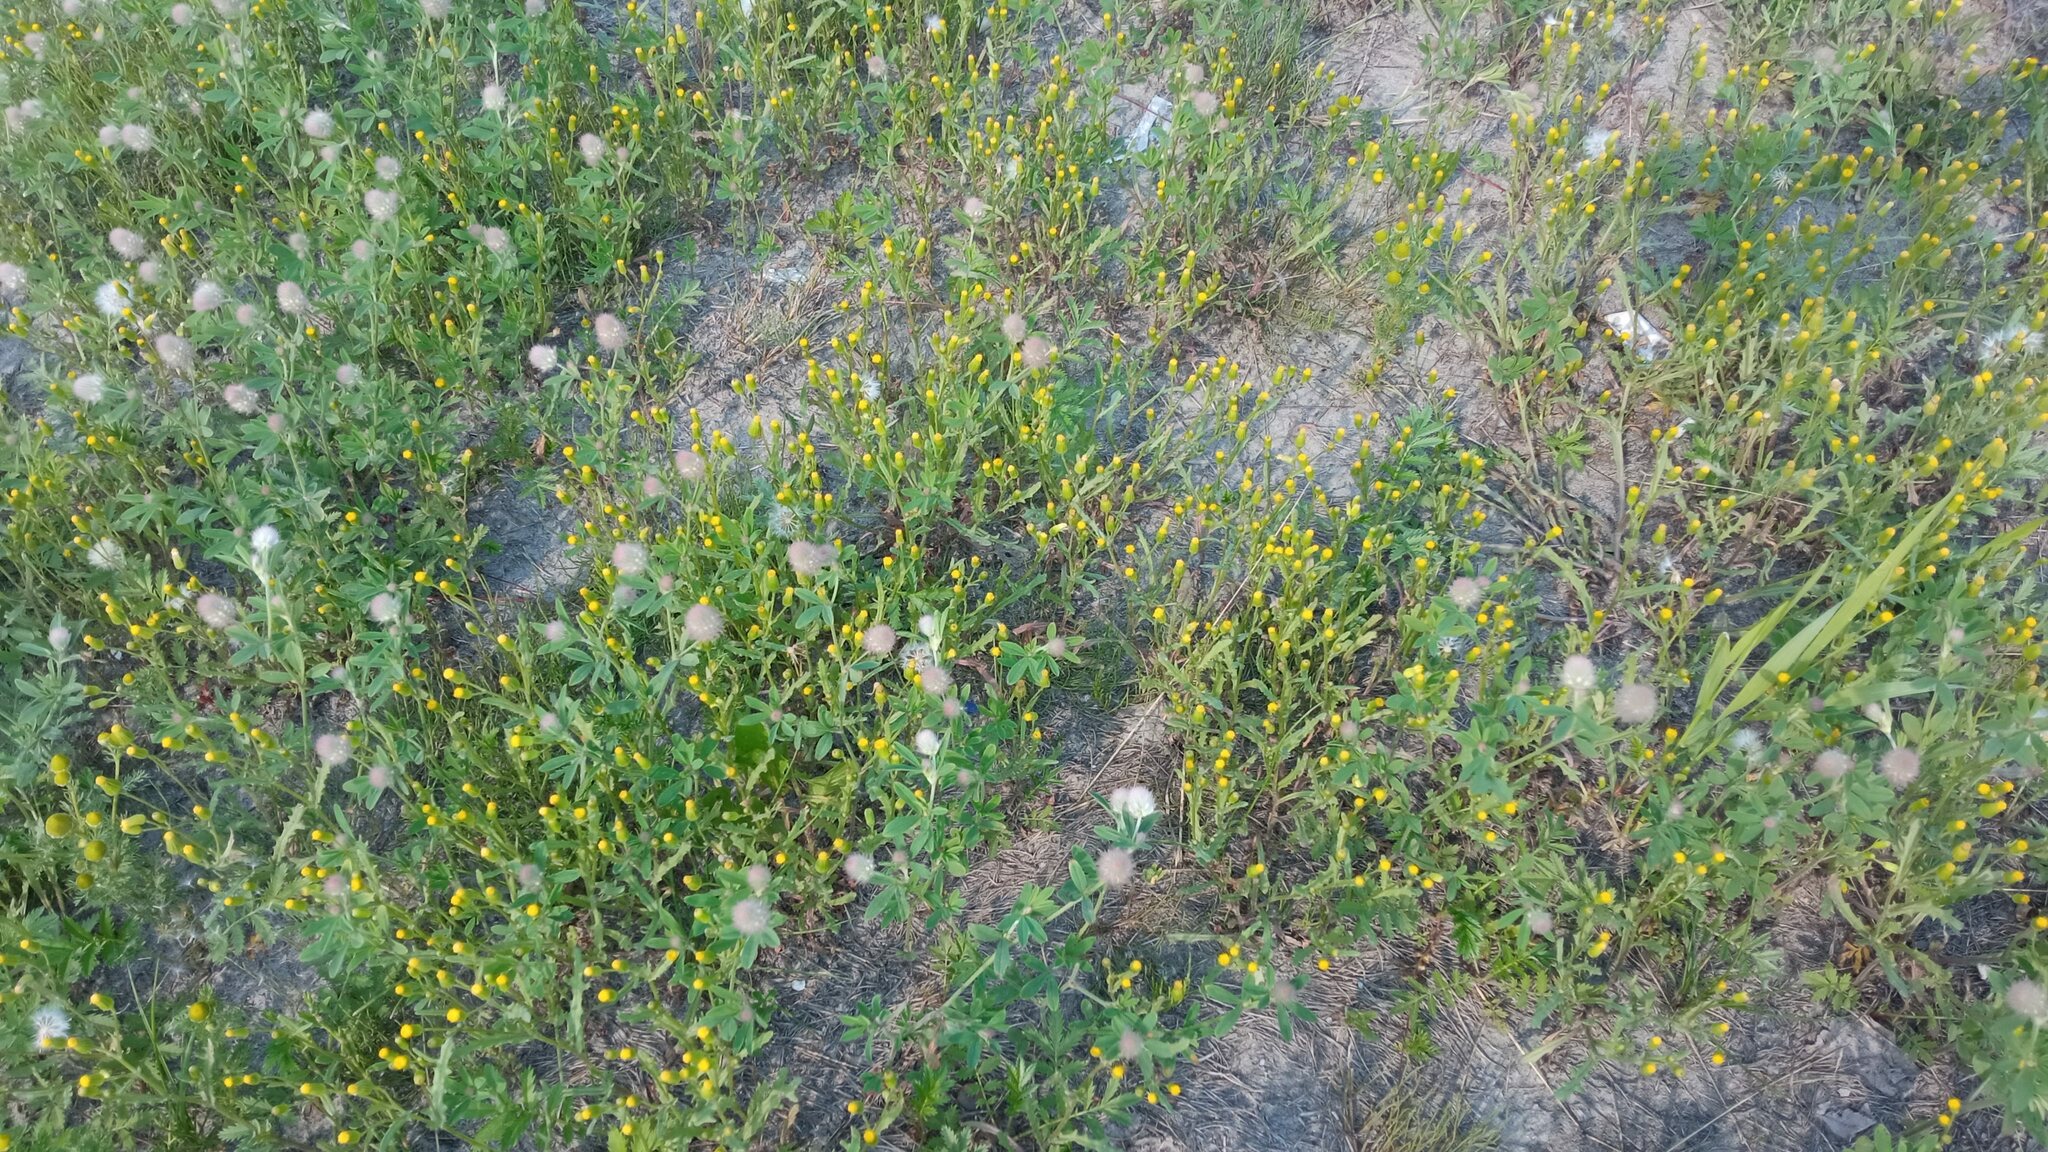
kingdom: Plantae
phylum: Tracheophyta
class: Magnoliopsida
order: Asterales
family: Asteraceae
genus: Senecio
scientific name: Senecio dubitabilis
